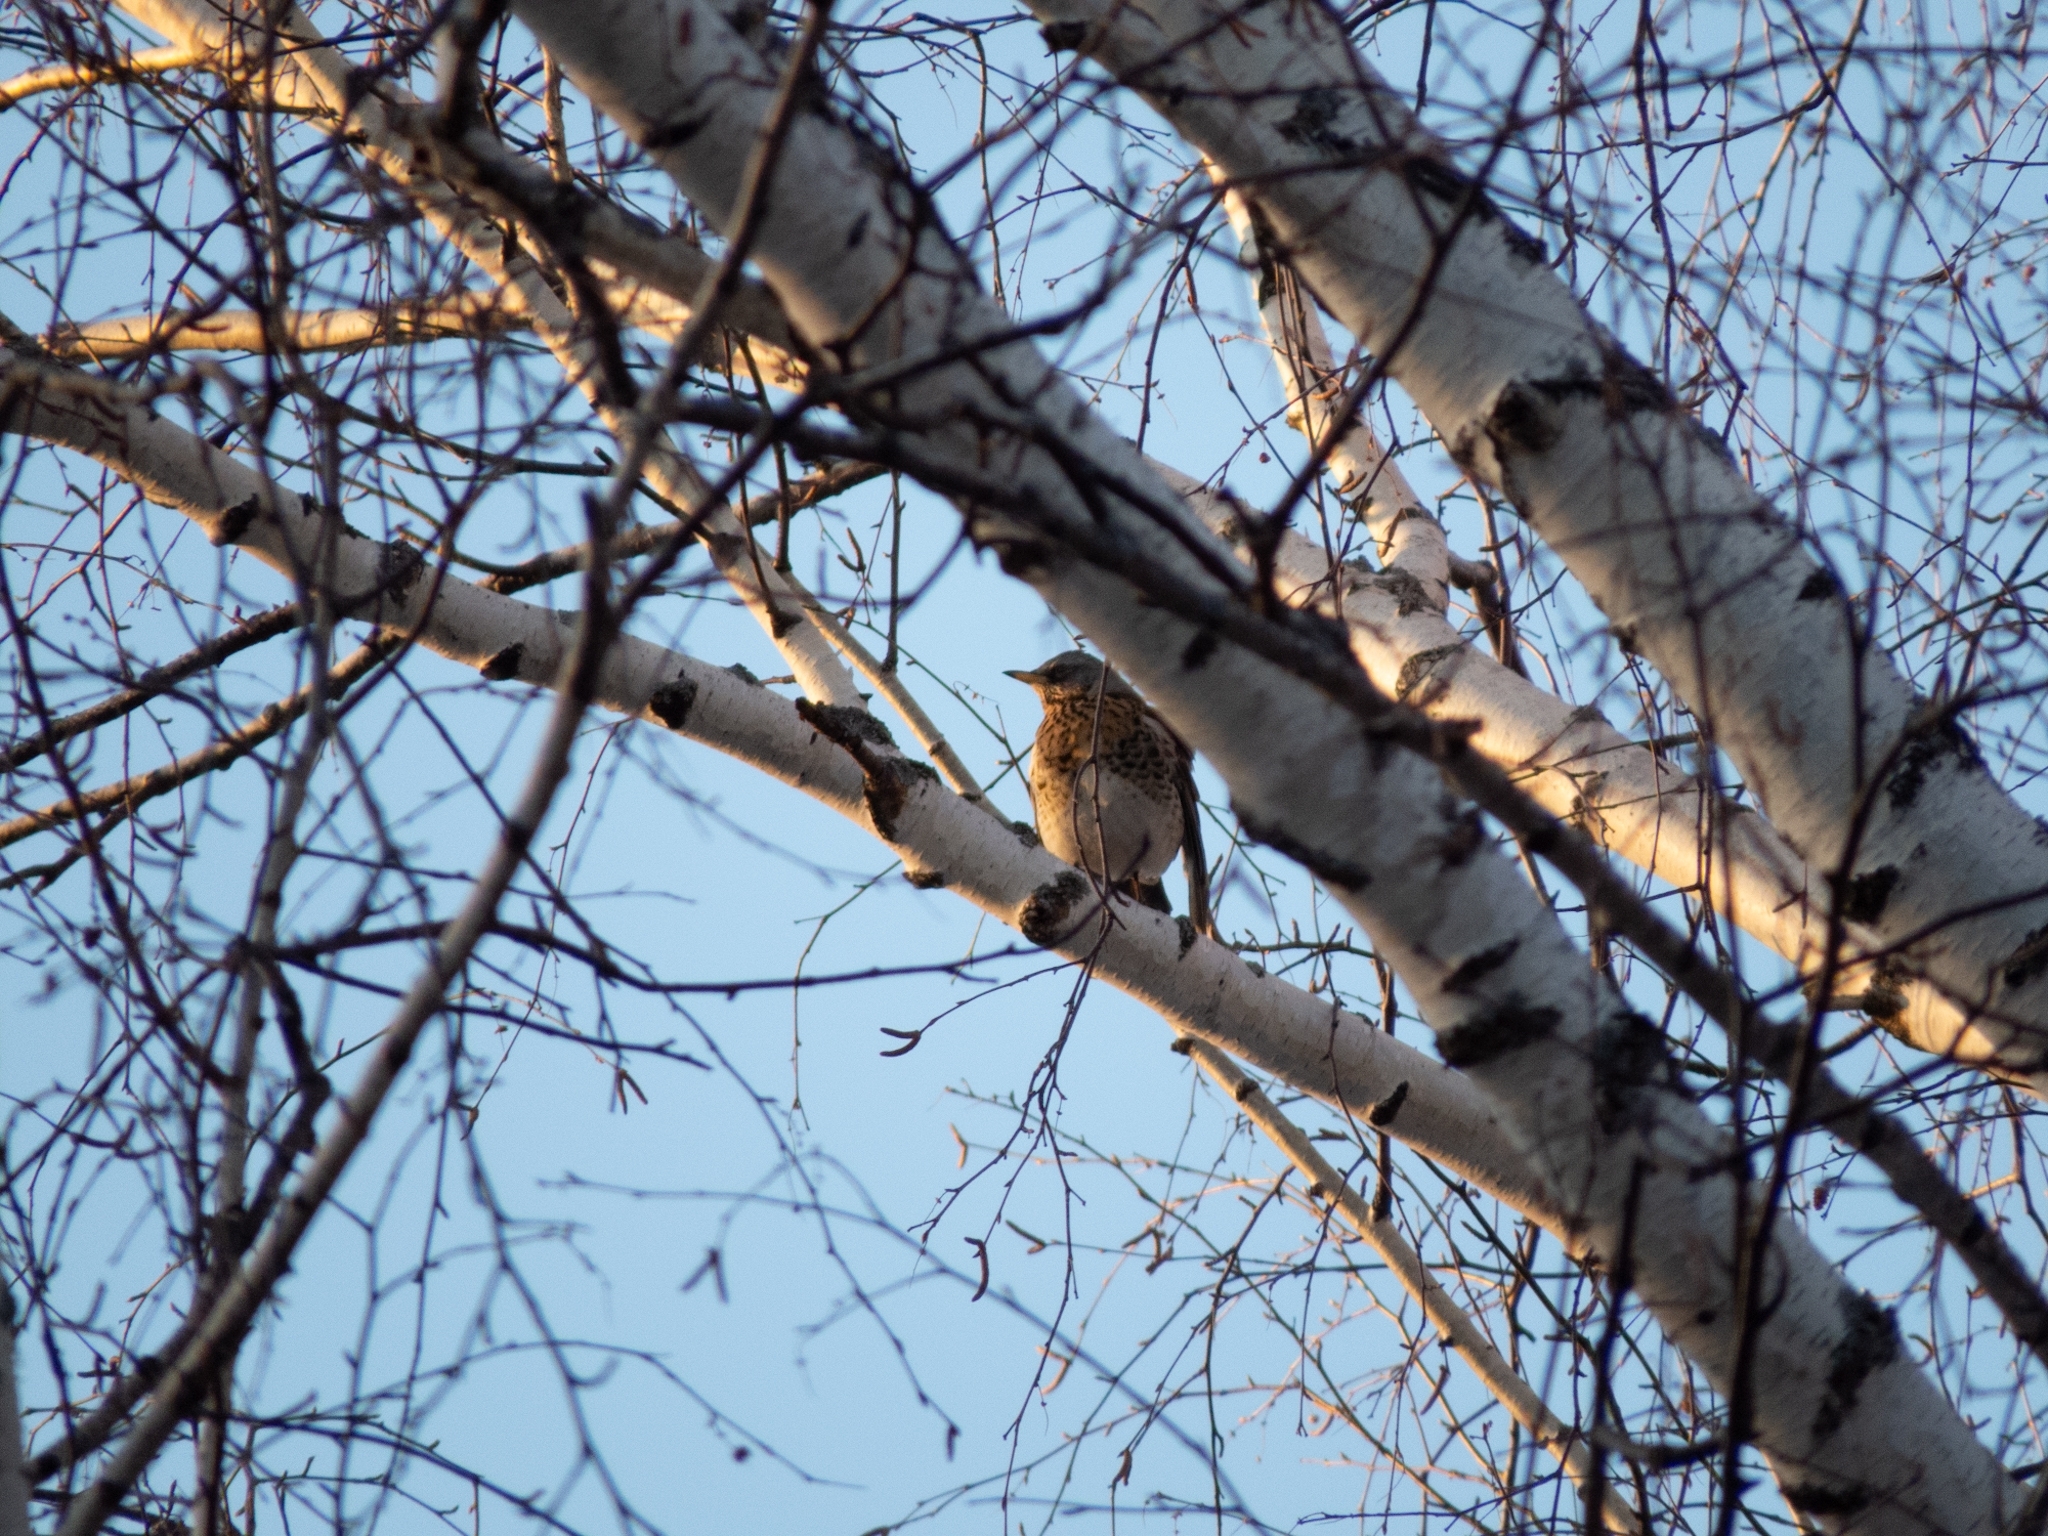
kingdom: Animalia
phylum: Chordata
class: Aves
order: Passeriformes
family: Turdidae
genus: Turdus
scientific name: Turdus pilaris
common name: Fieldfare
